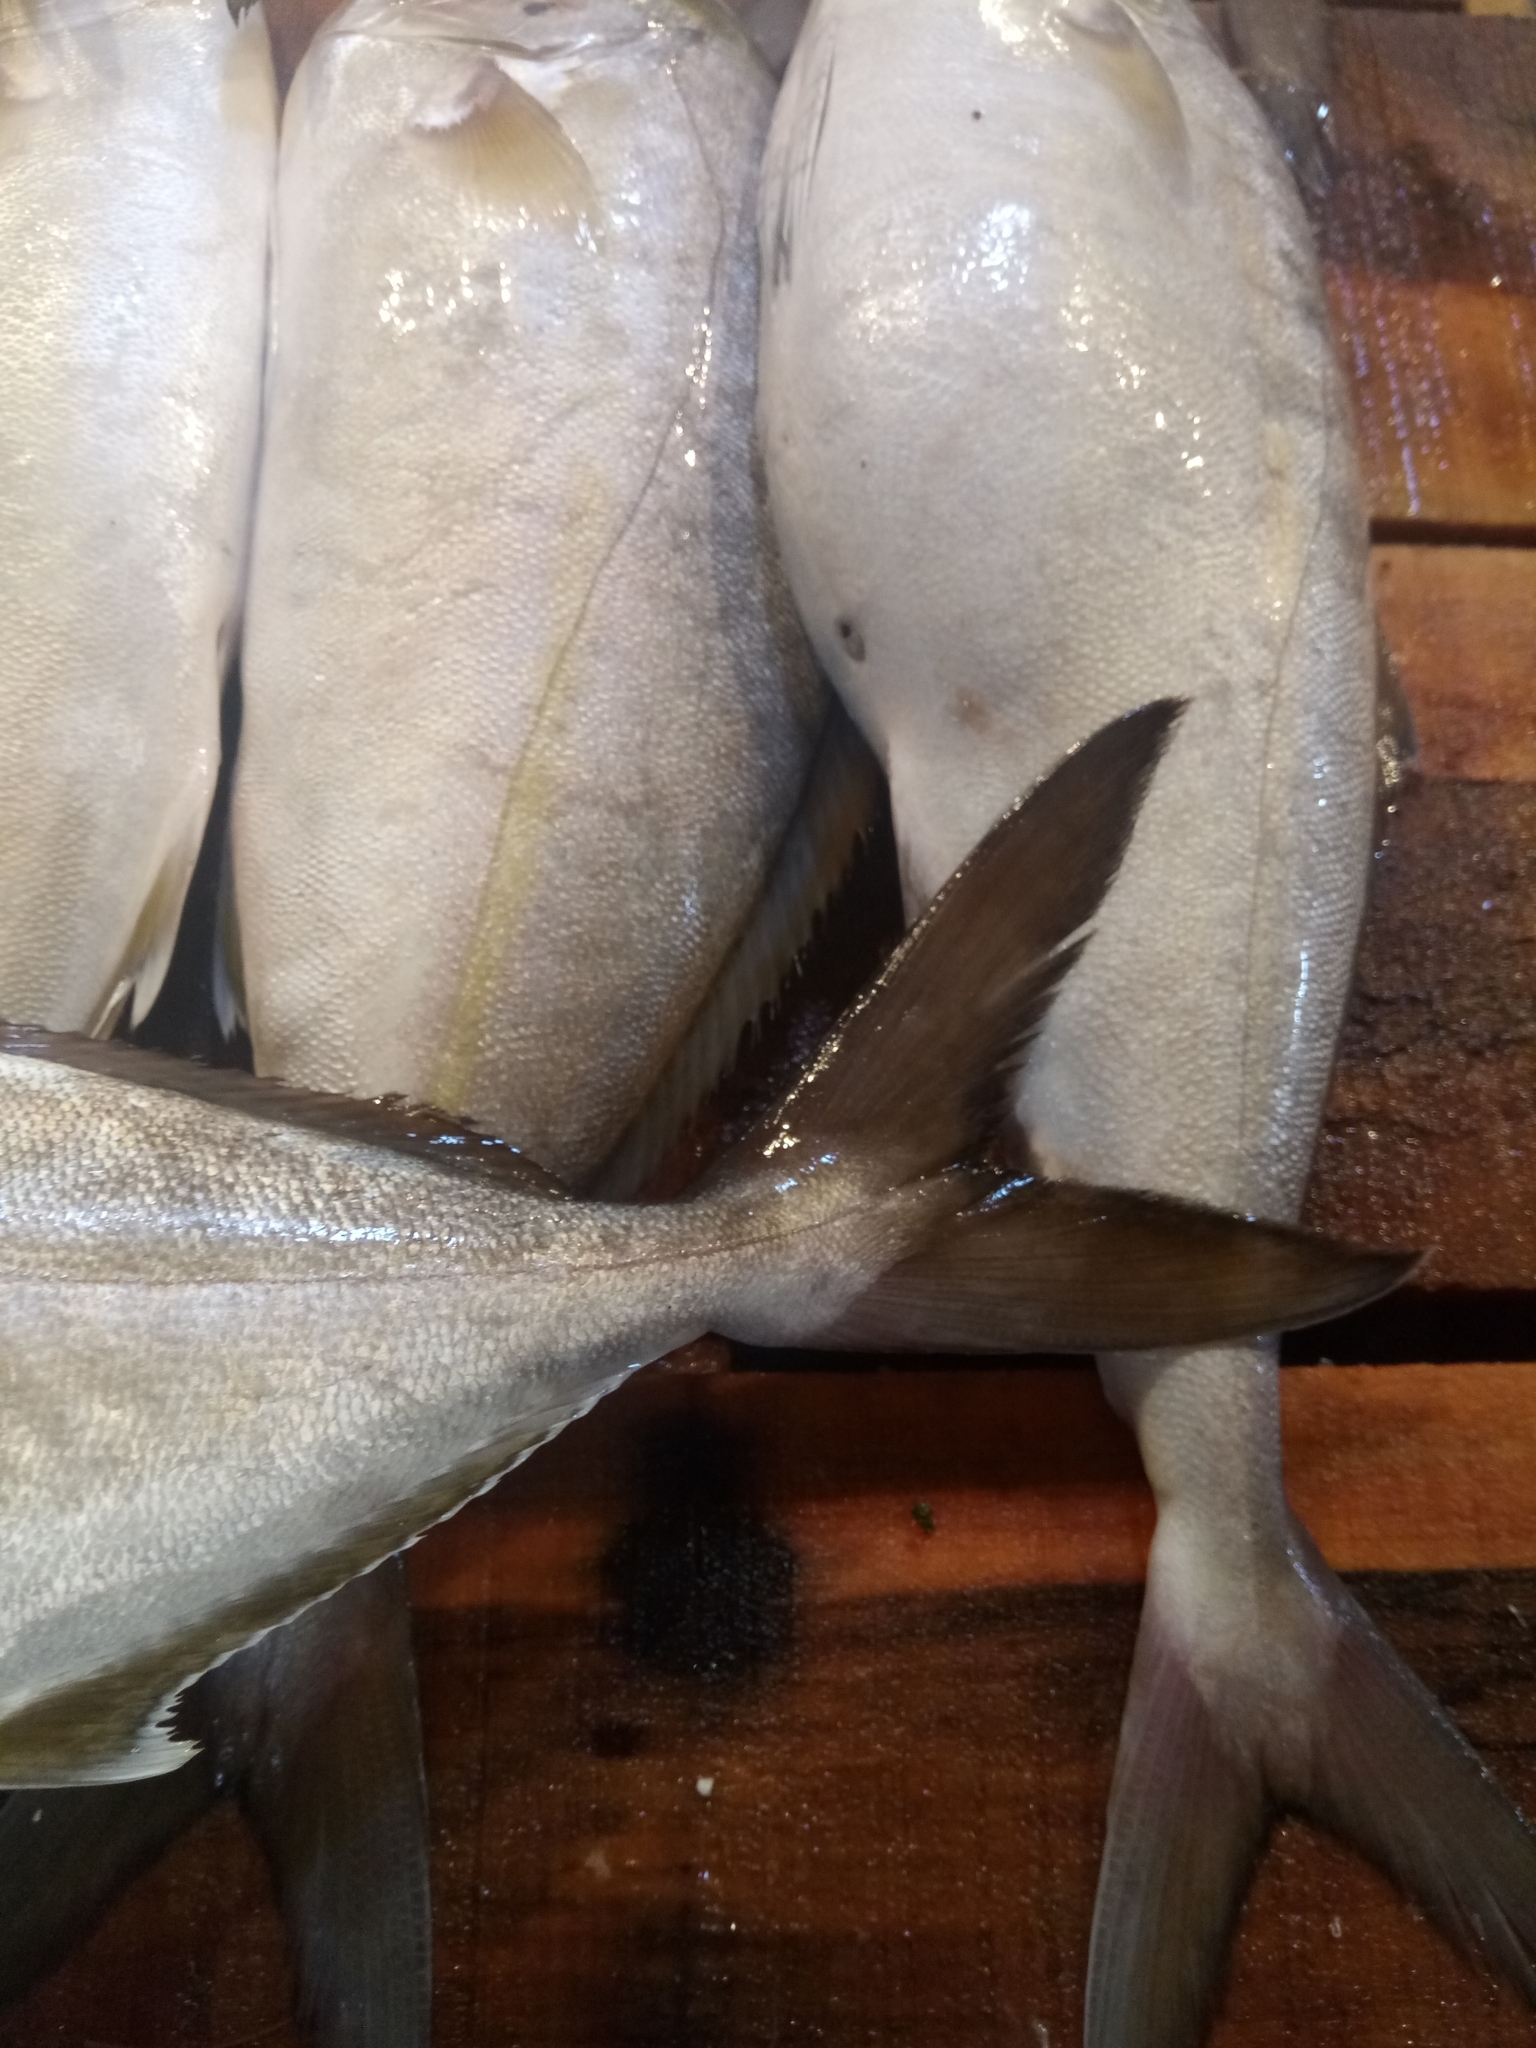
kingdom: Animalia
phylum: Chordata
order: Perciformes
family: Carangidae
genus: Seriola
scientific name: Seriola dumerili
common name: Greater amberjack
